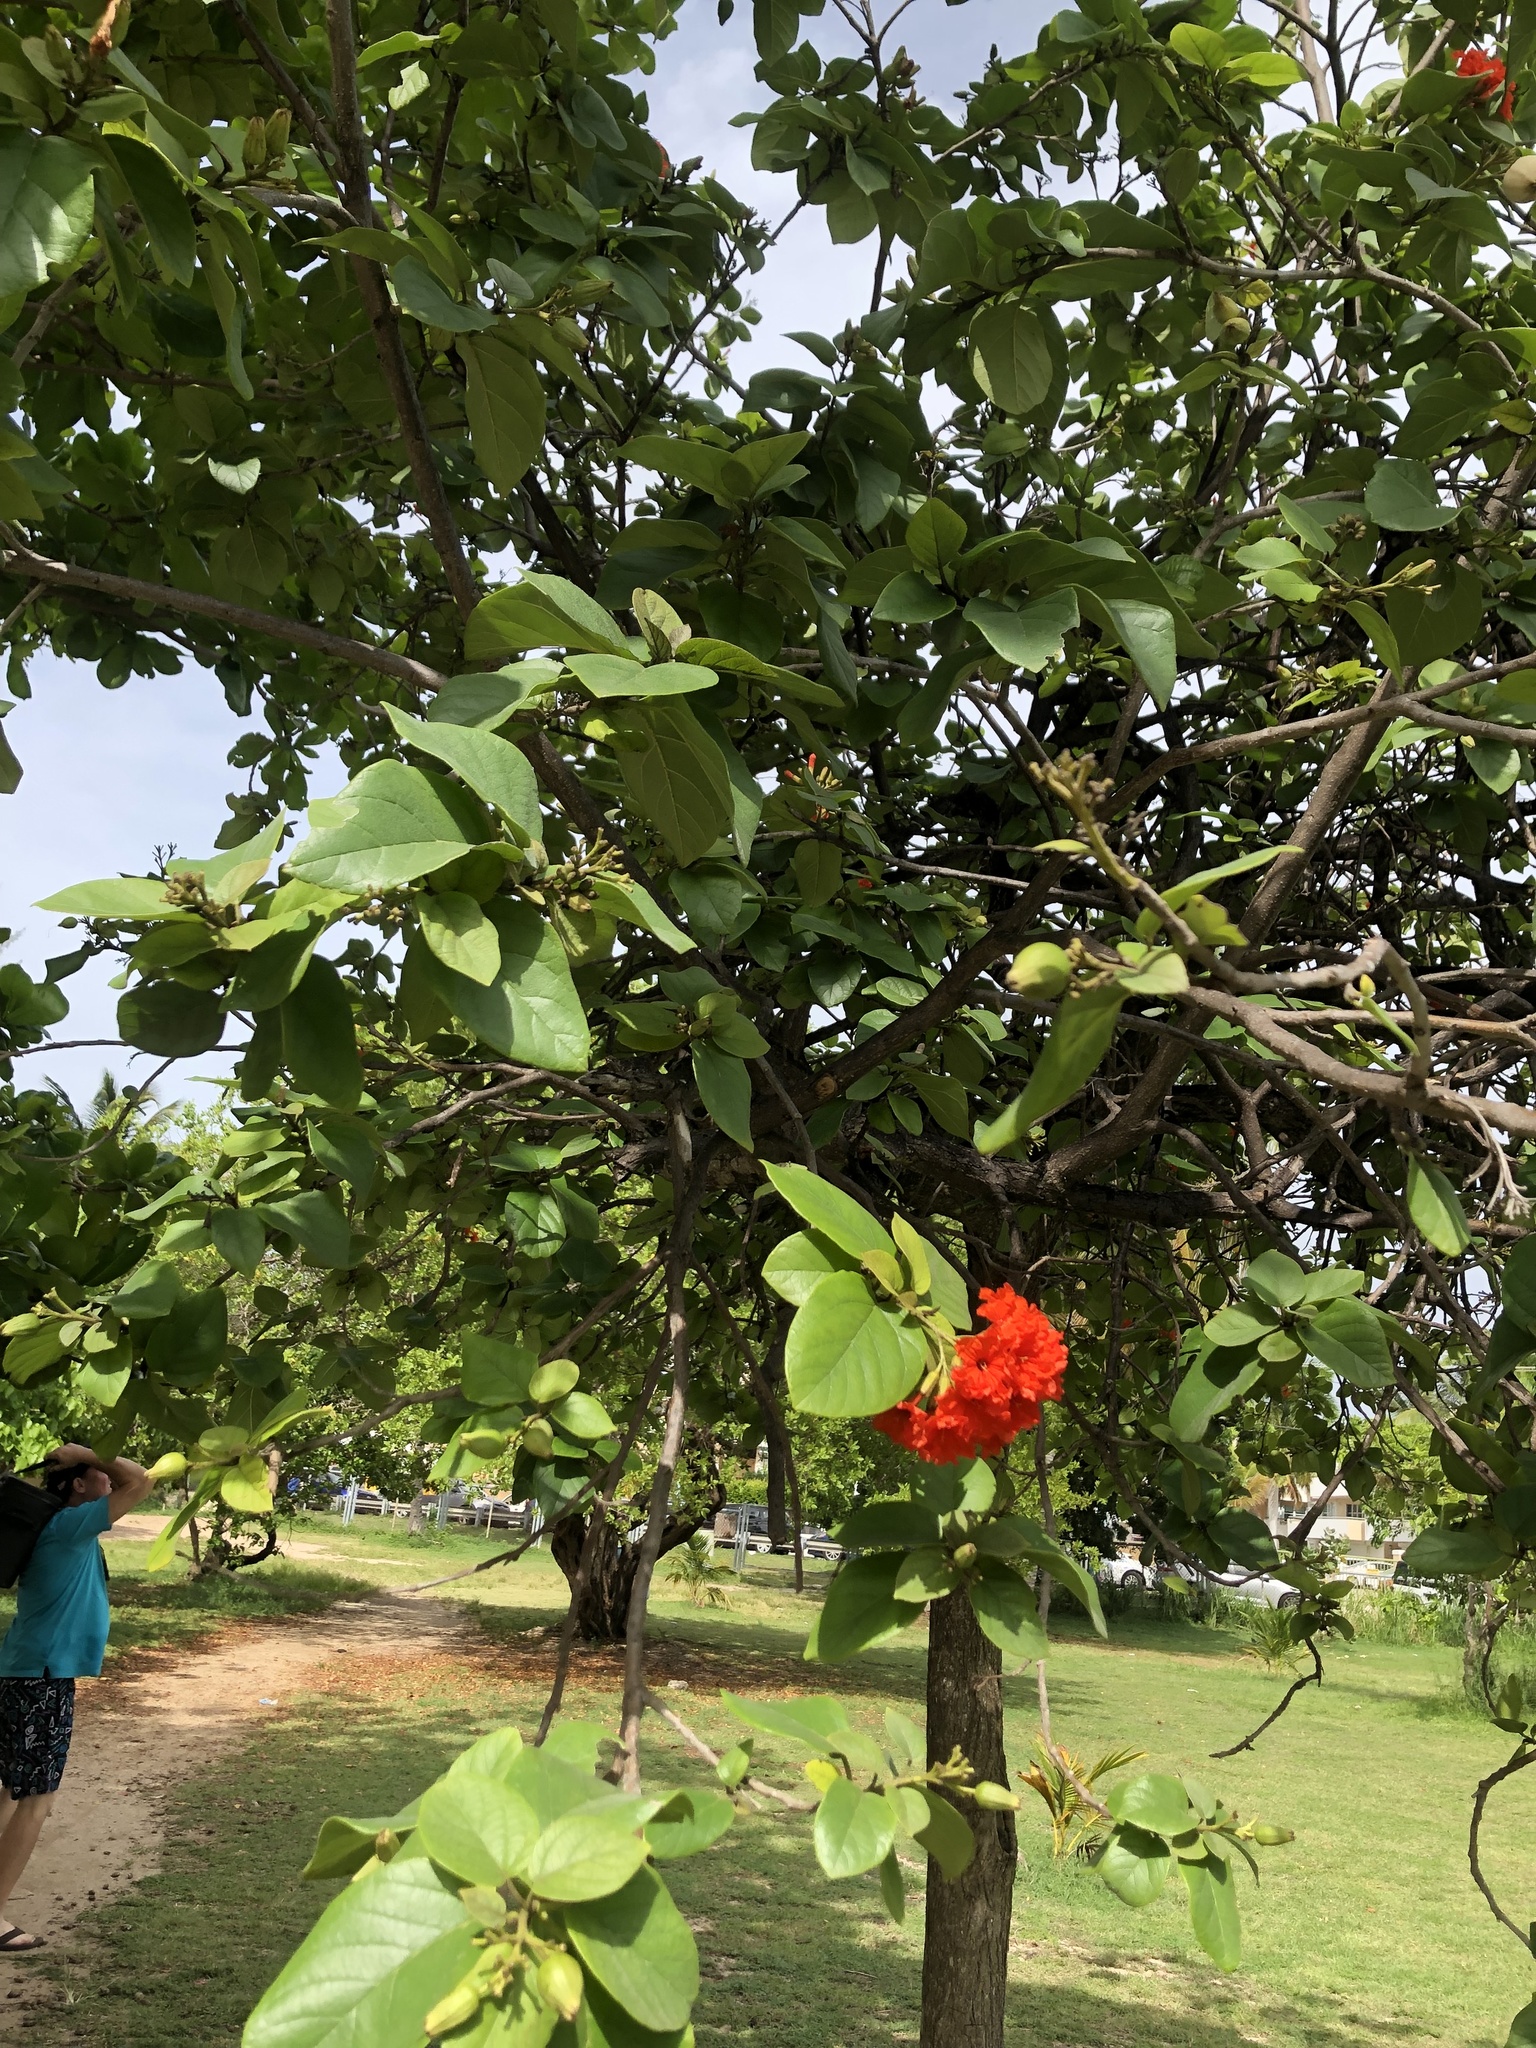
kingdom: Plantae
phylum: Tracheophyta
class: Magnoliopsida
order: Boraginales
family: Cordiaceae
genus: Cordia
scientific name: Cordia sebestena
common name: Largeleaf geigertree
